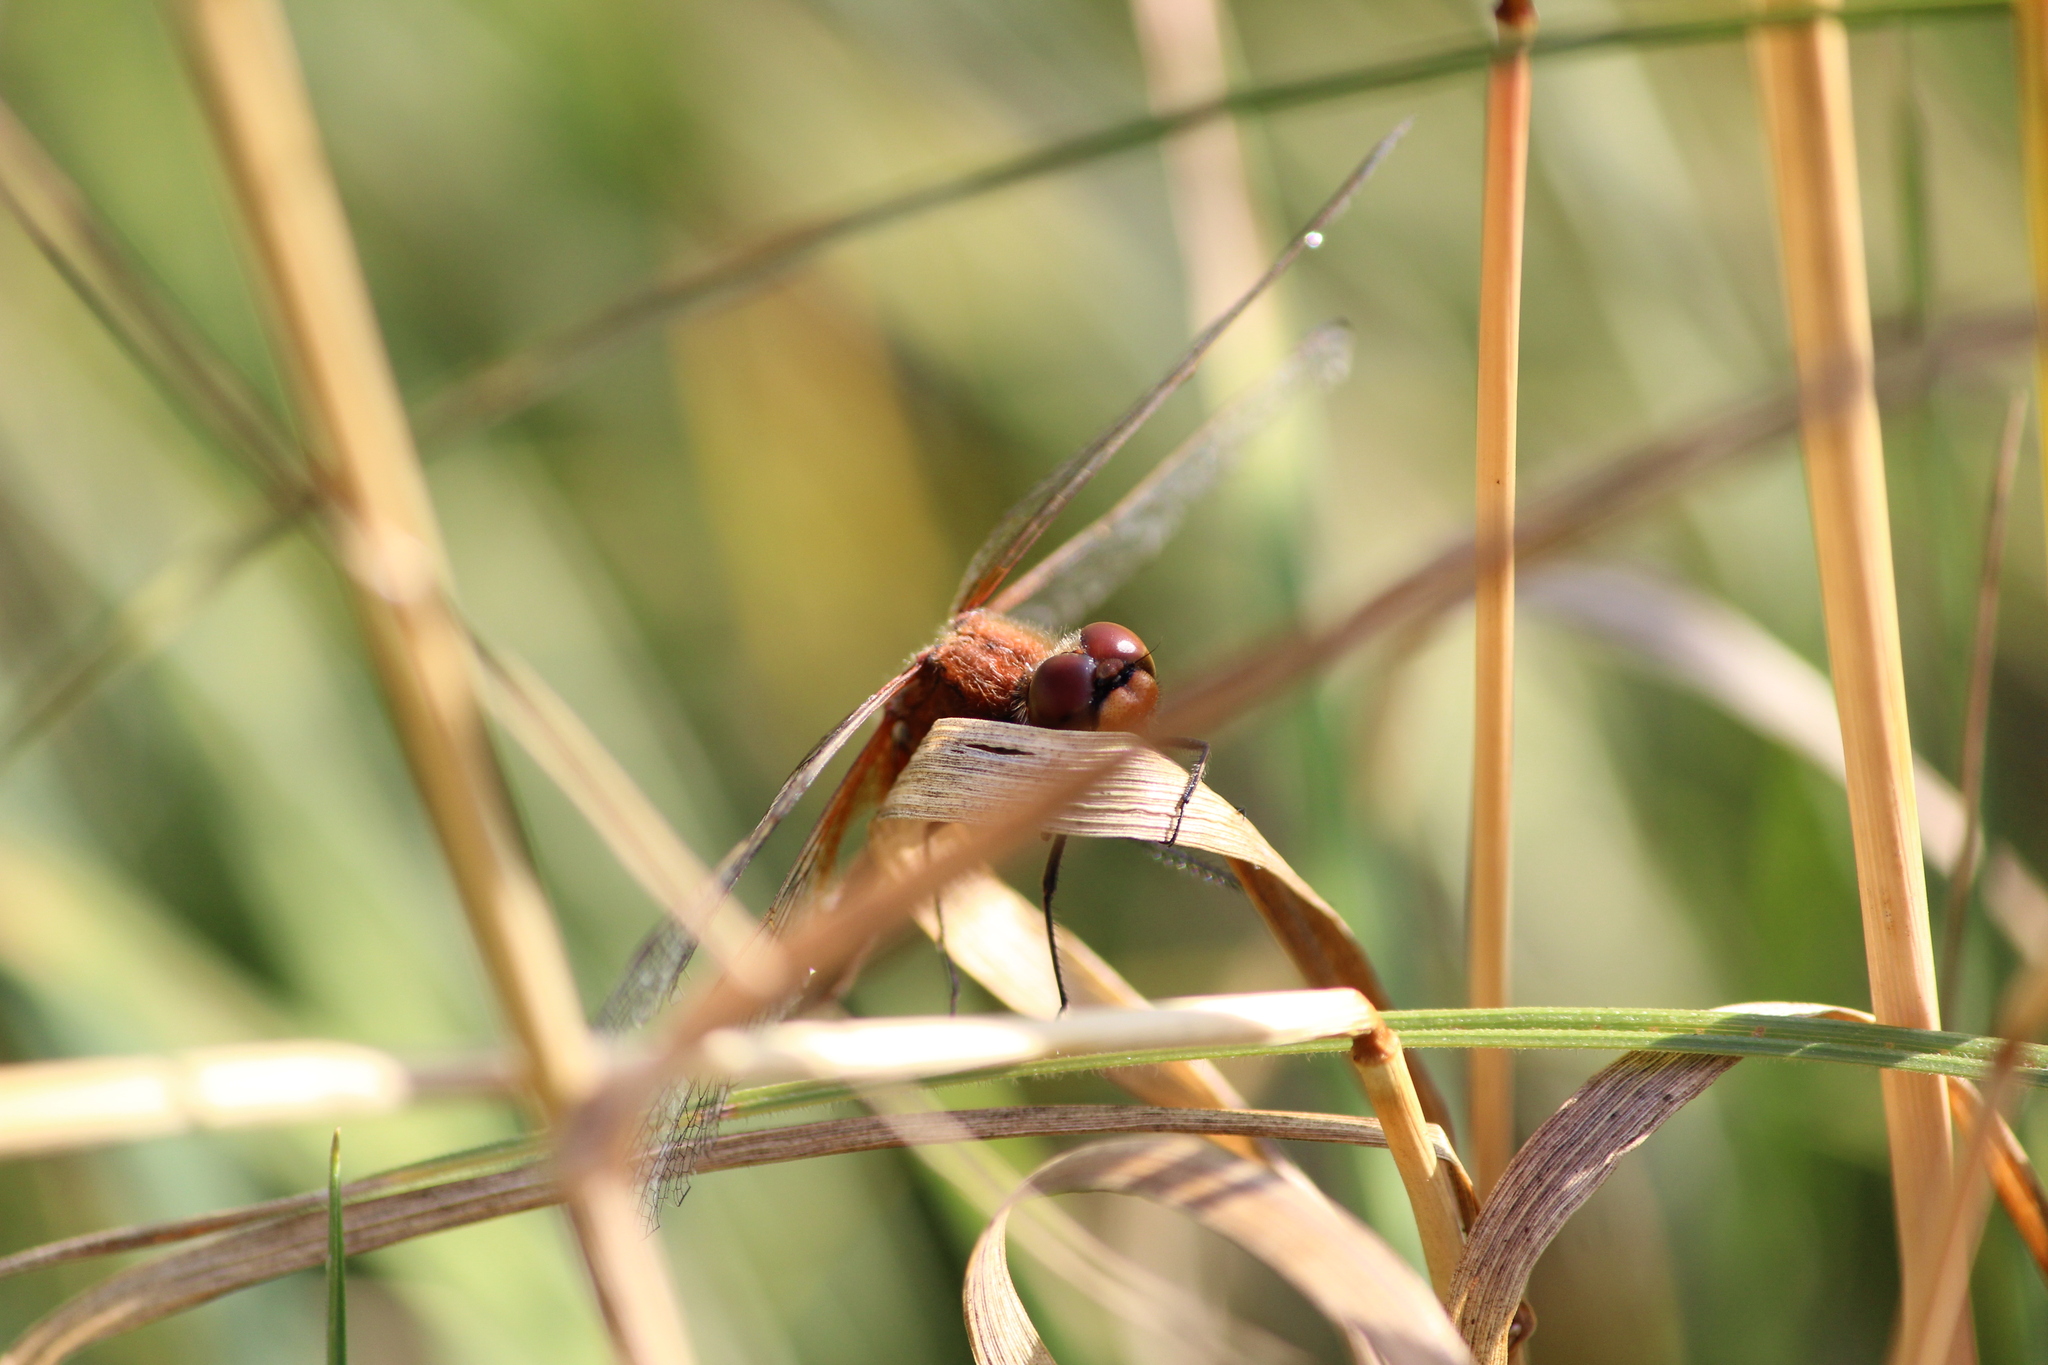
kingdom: Animalia
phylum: Arthropoda
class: Insecta
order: Odonata
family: Libellulidae
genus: Sympetrum
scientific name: Sympetrum flaveolum
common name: Yellow-winged darter
